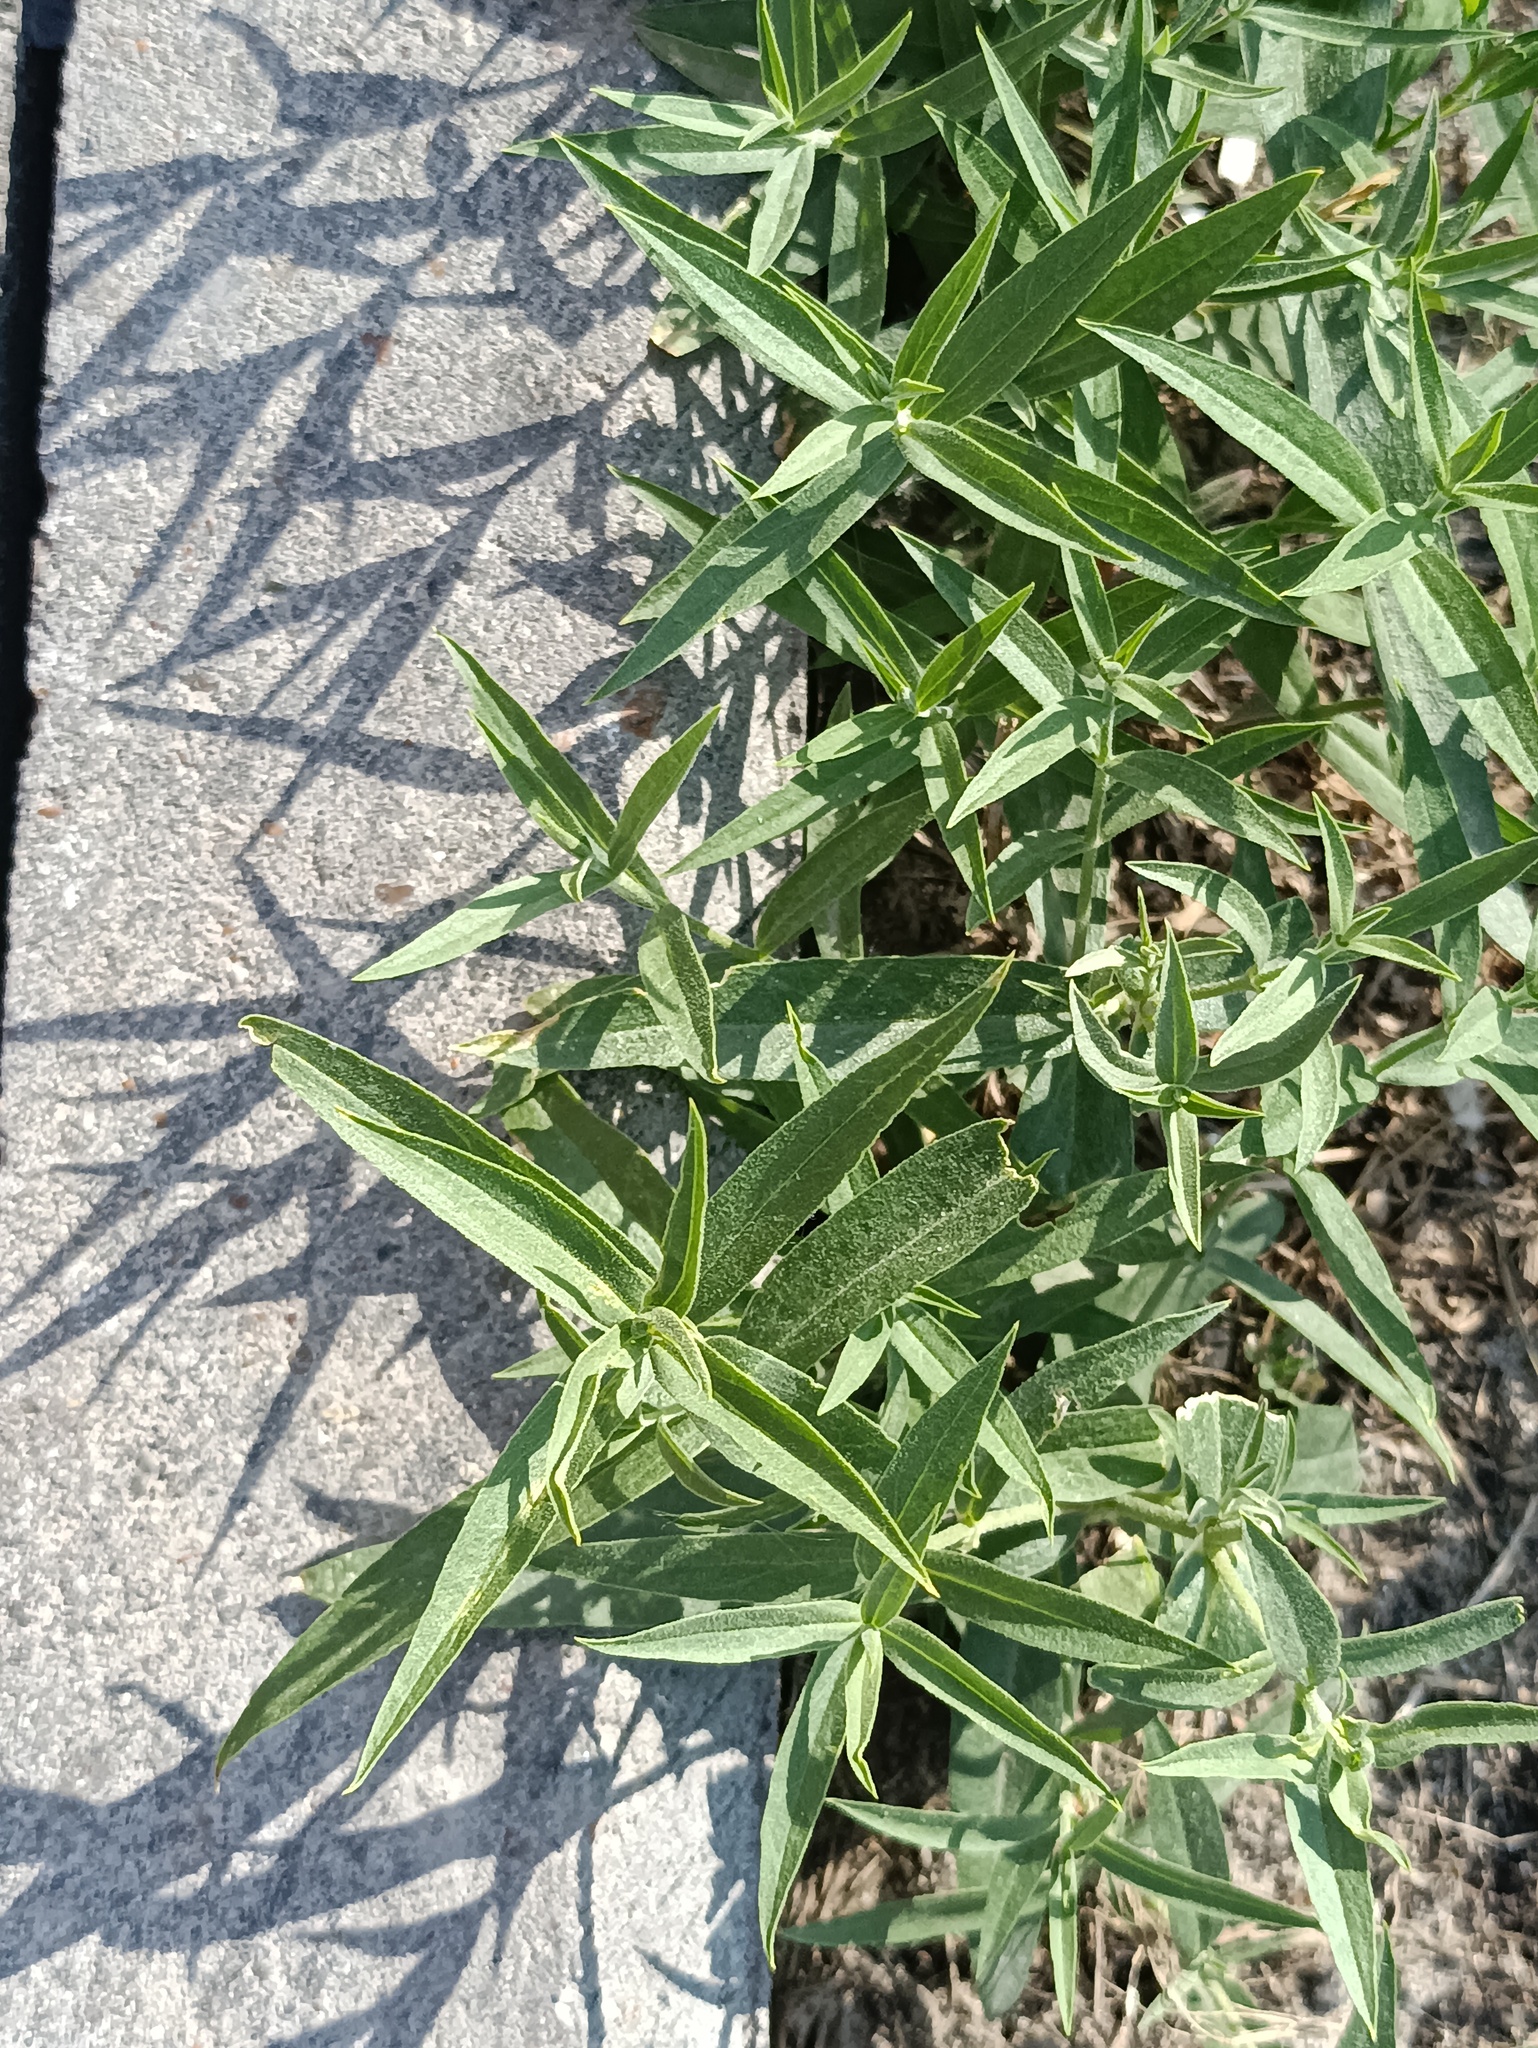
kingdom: Plantae
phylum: Tracheophyta
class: Magnoliopsida
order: Lamiales
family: Plantaginaceae
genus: Veronica
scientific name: Veronica longifolia
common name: Garden speedwell
